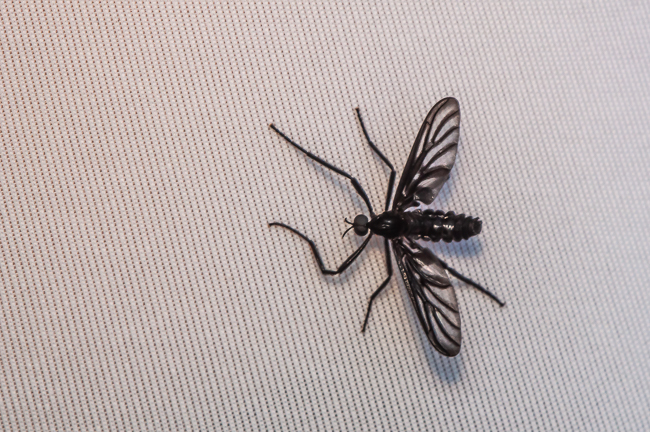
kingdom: Animalia
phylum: Arthropoda
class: Insecta
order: Diptera
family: Bibionidae
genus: Plecia
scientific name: Plecia plagiata
